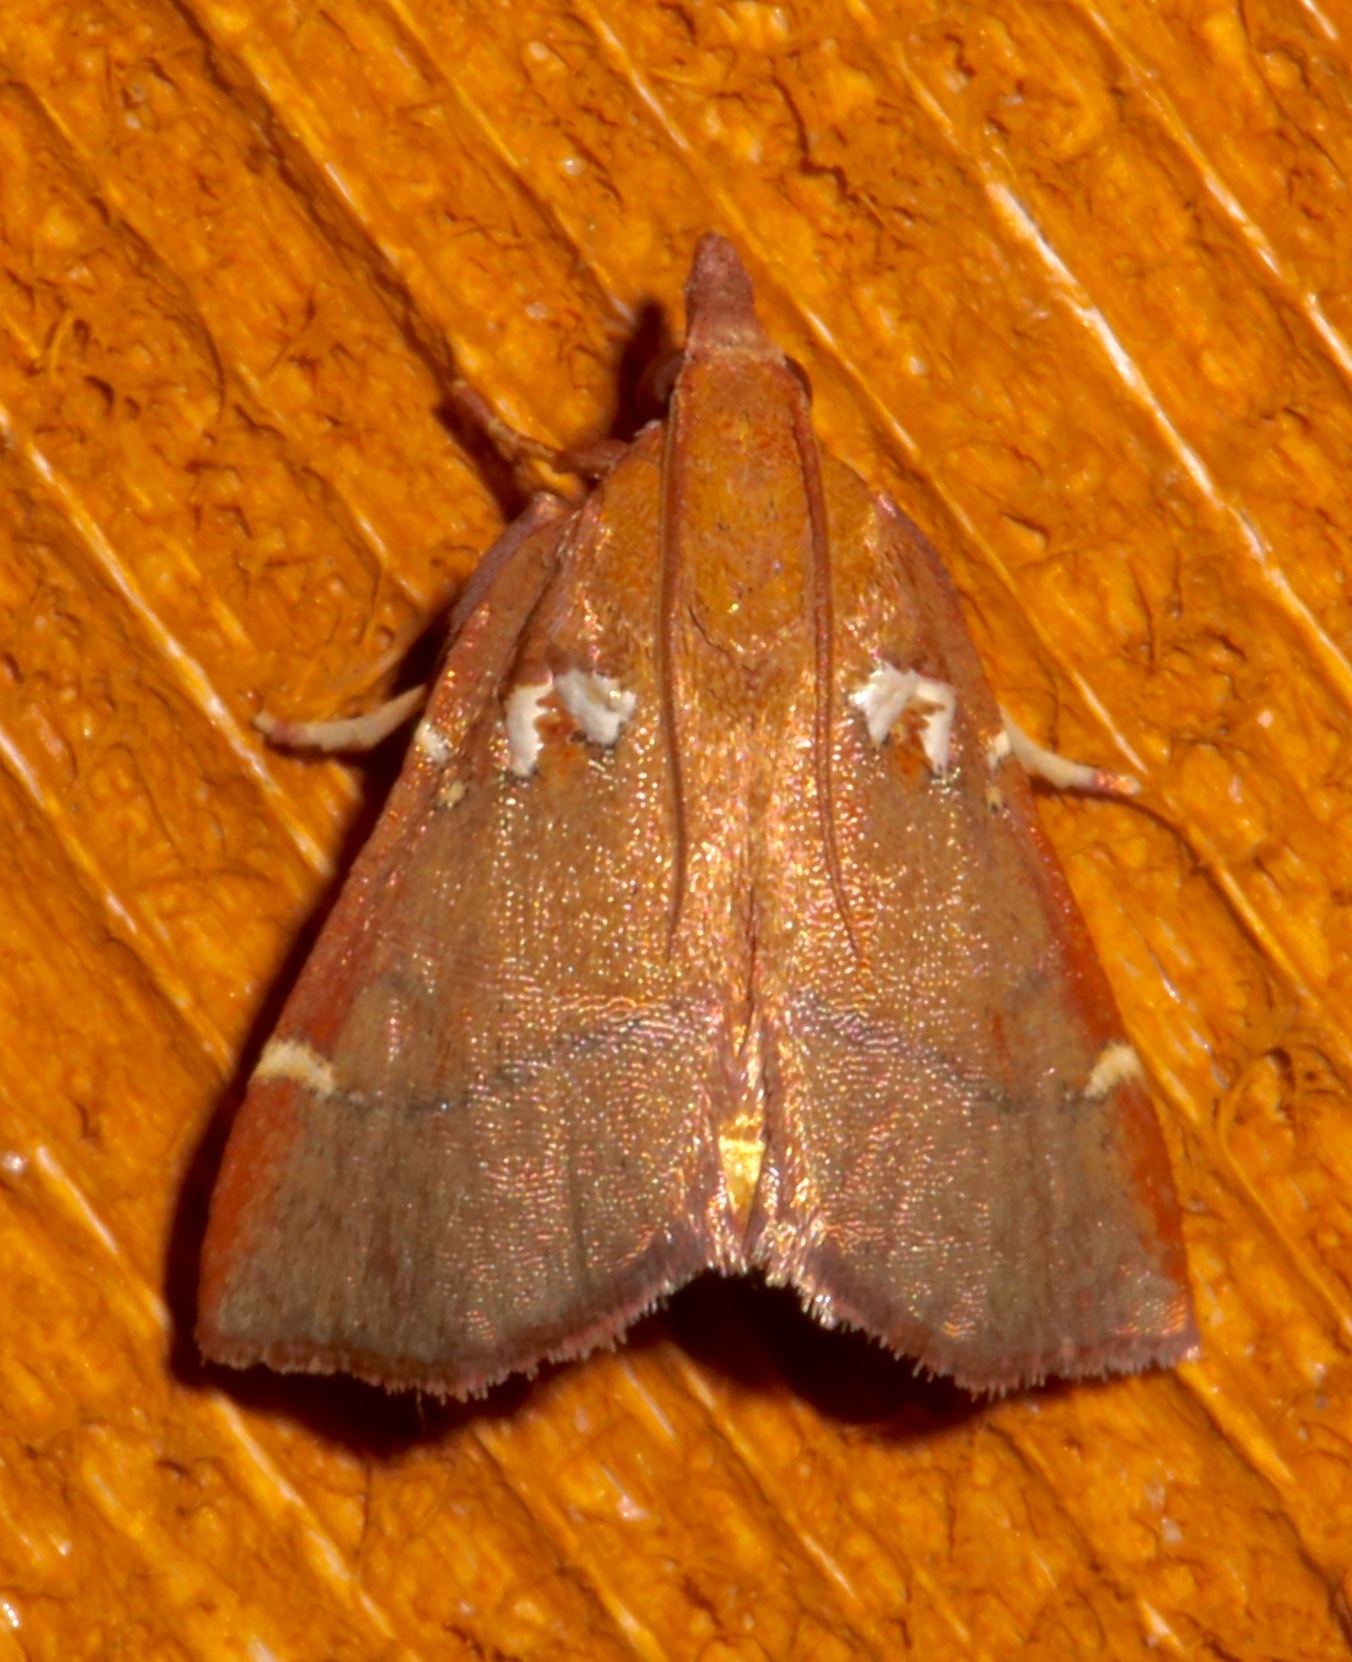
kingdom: Animalia
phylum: Arthropoda
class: Insecta
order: Lepidoptera
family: Pyralidae
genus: Lepidomys
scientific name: Lepidomys irrenosa
